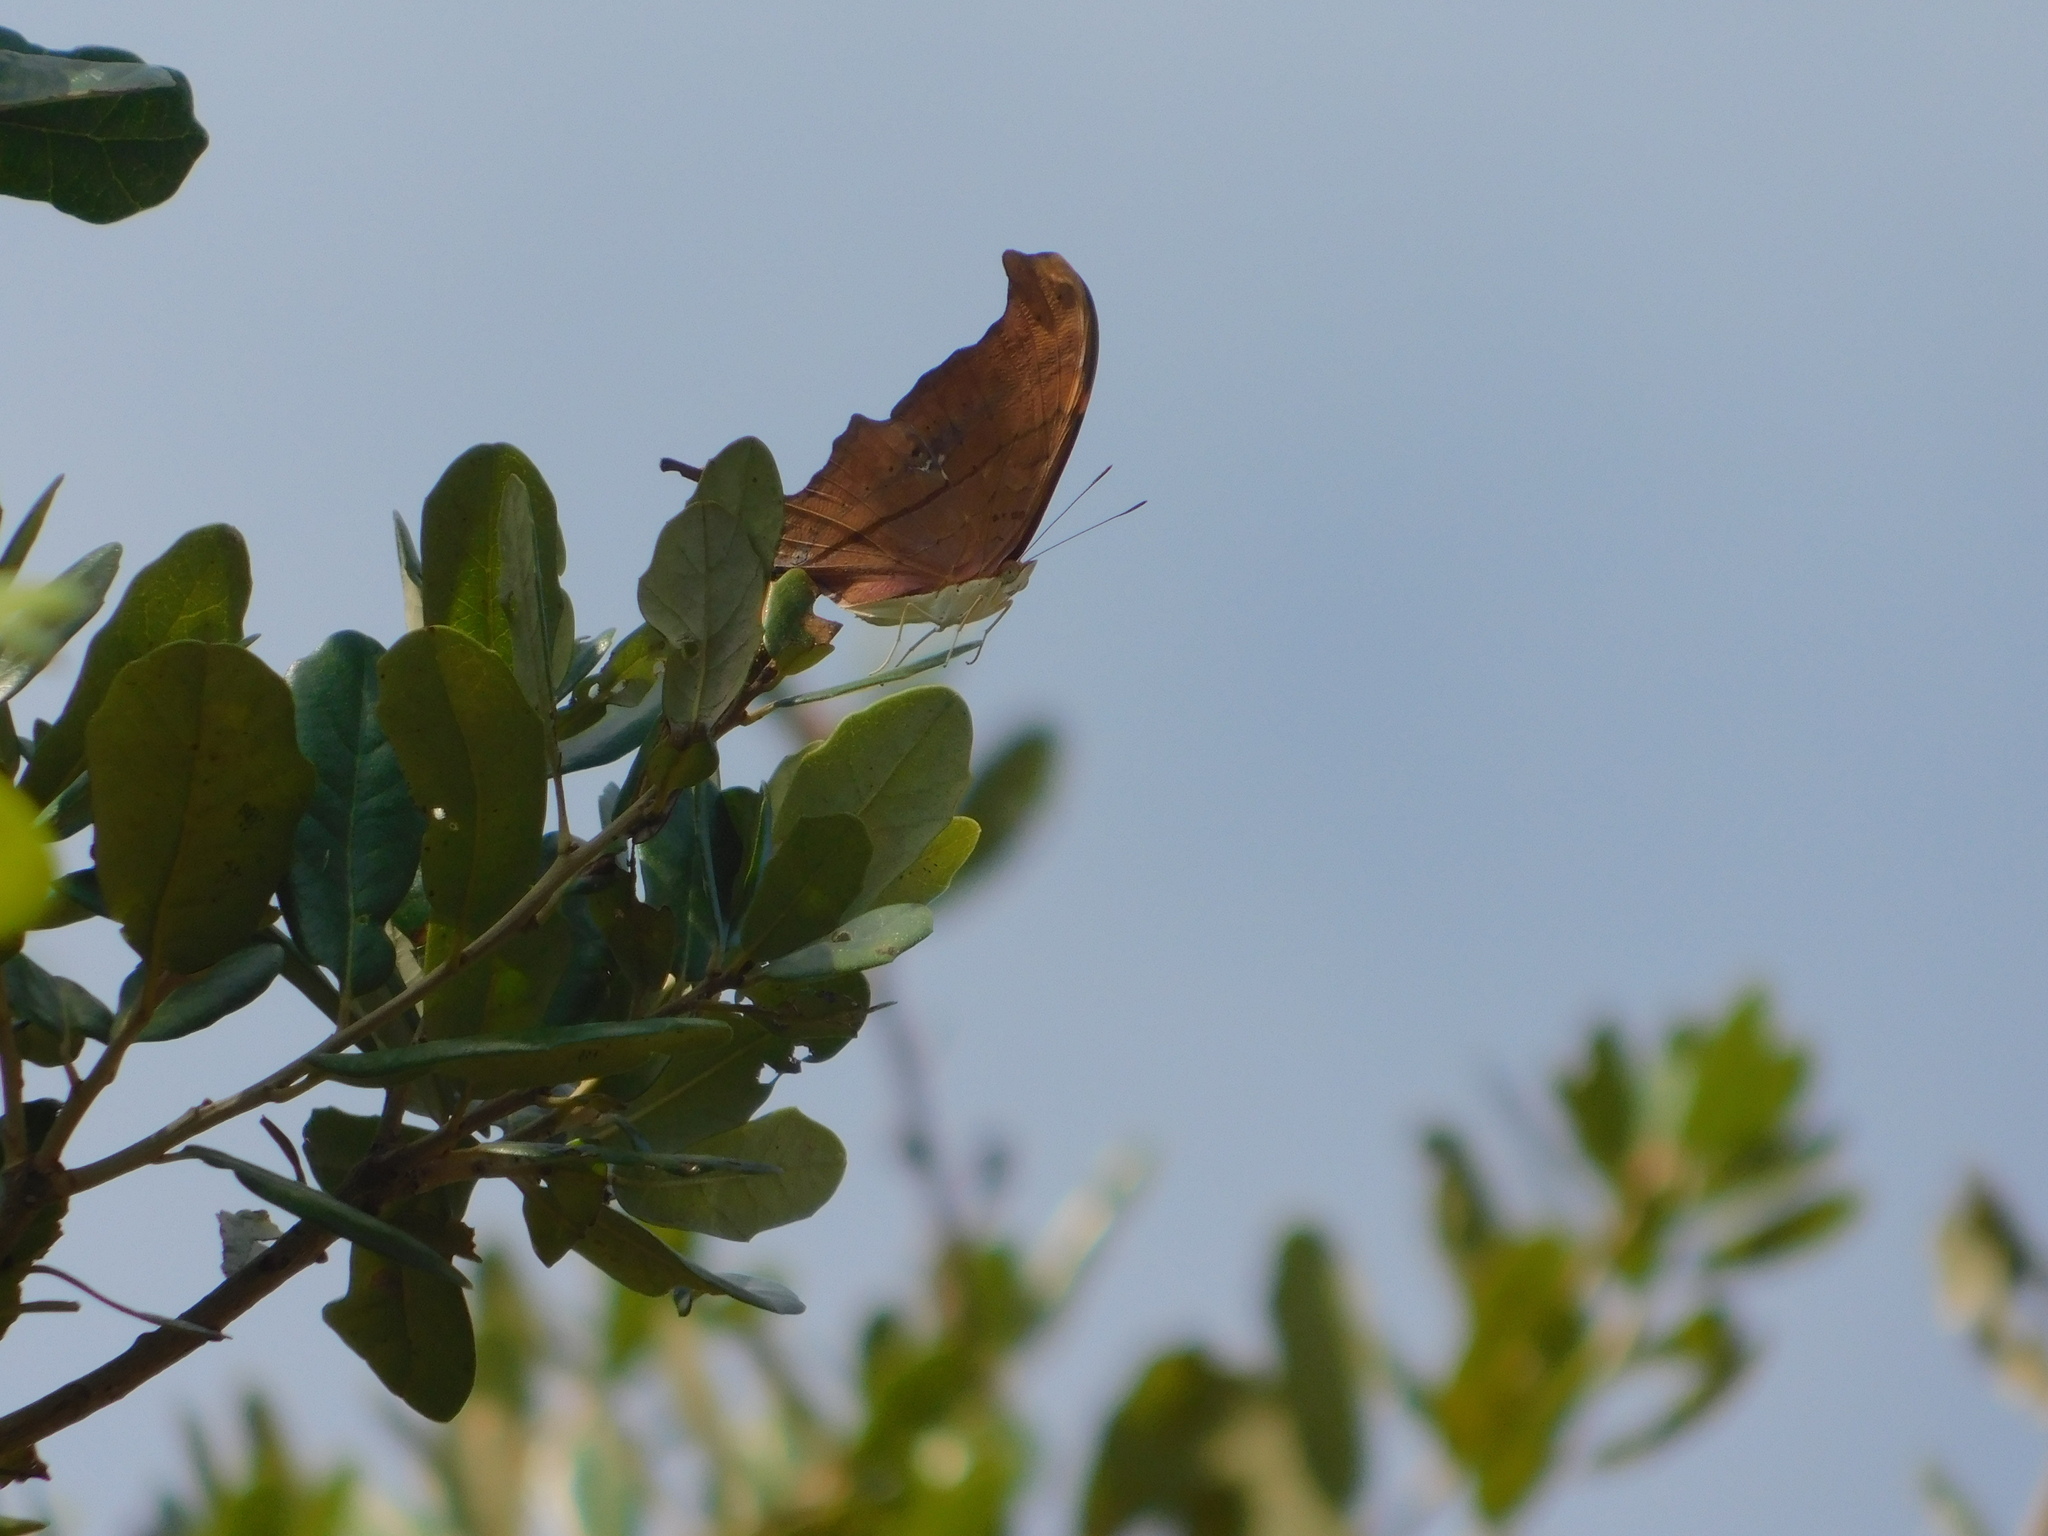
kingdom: Animalia
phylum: Arthropoda
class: Insecta
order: Lepidoptera
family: Nymphalidae
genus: Marpesia
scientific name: Marpesia petreus
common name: Red dagger wing
